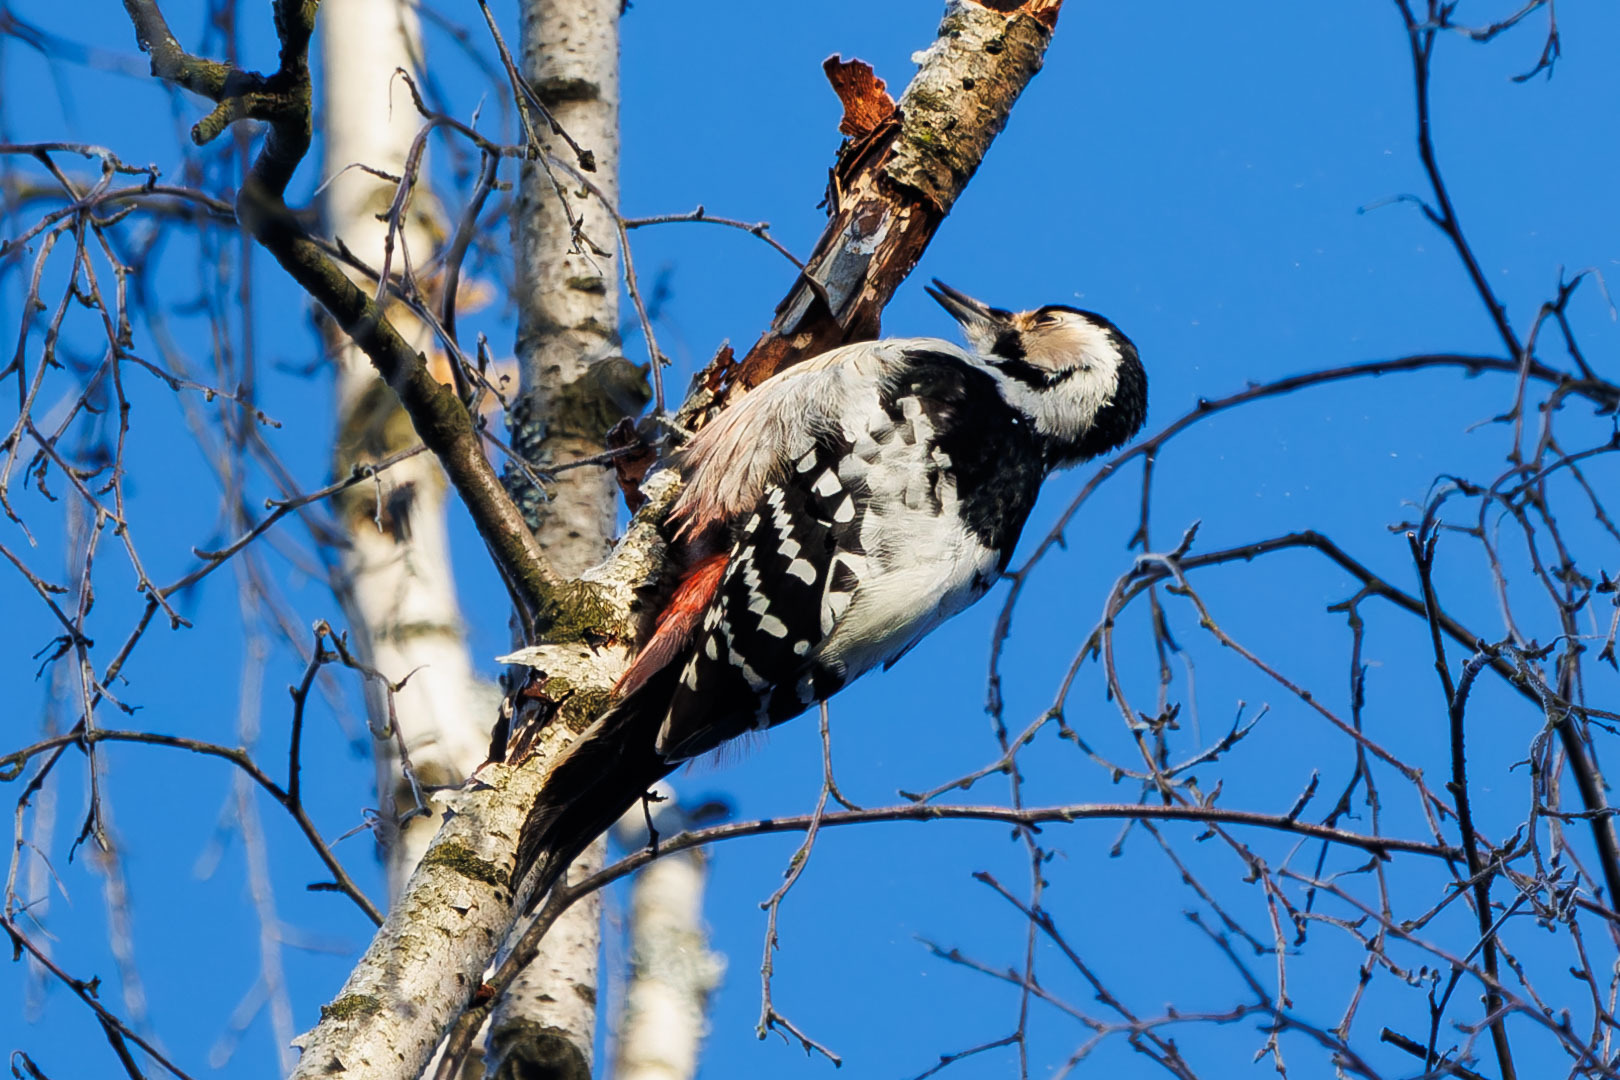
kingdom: Animalia
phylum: Chordata
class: Aves
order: Piciformes
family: Picidae
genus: Dendrocopos
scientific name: Dendrocopos leucotos
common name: White-backed woodpecker
